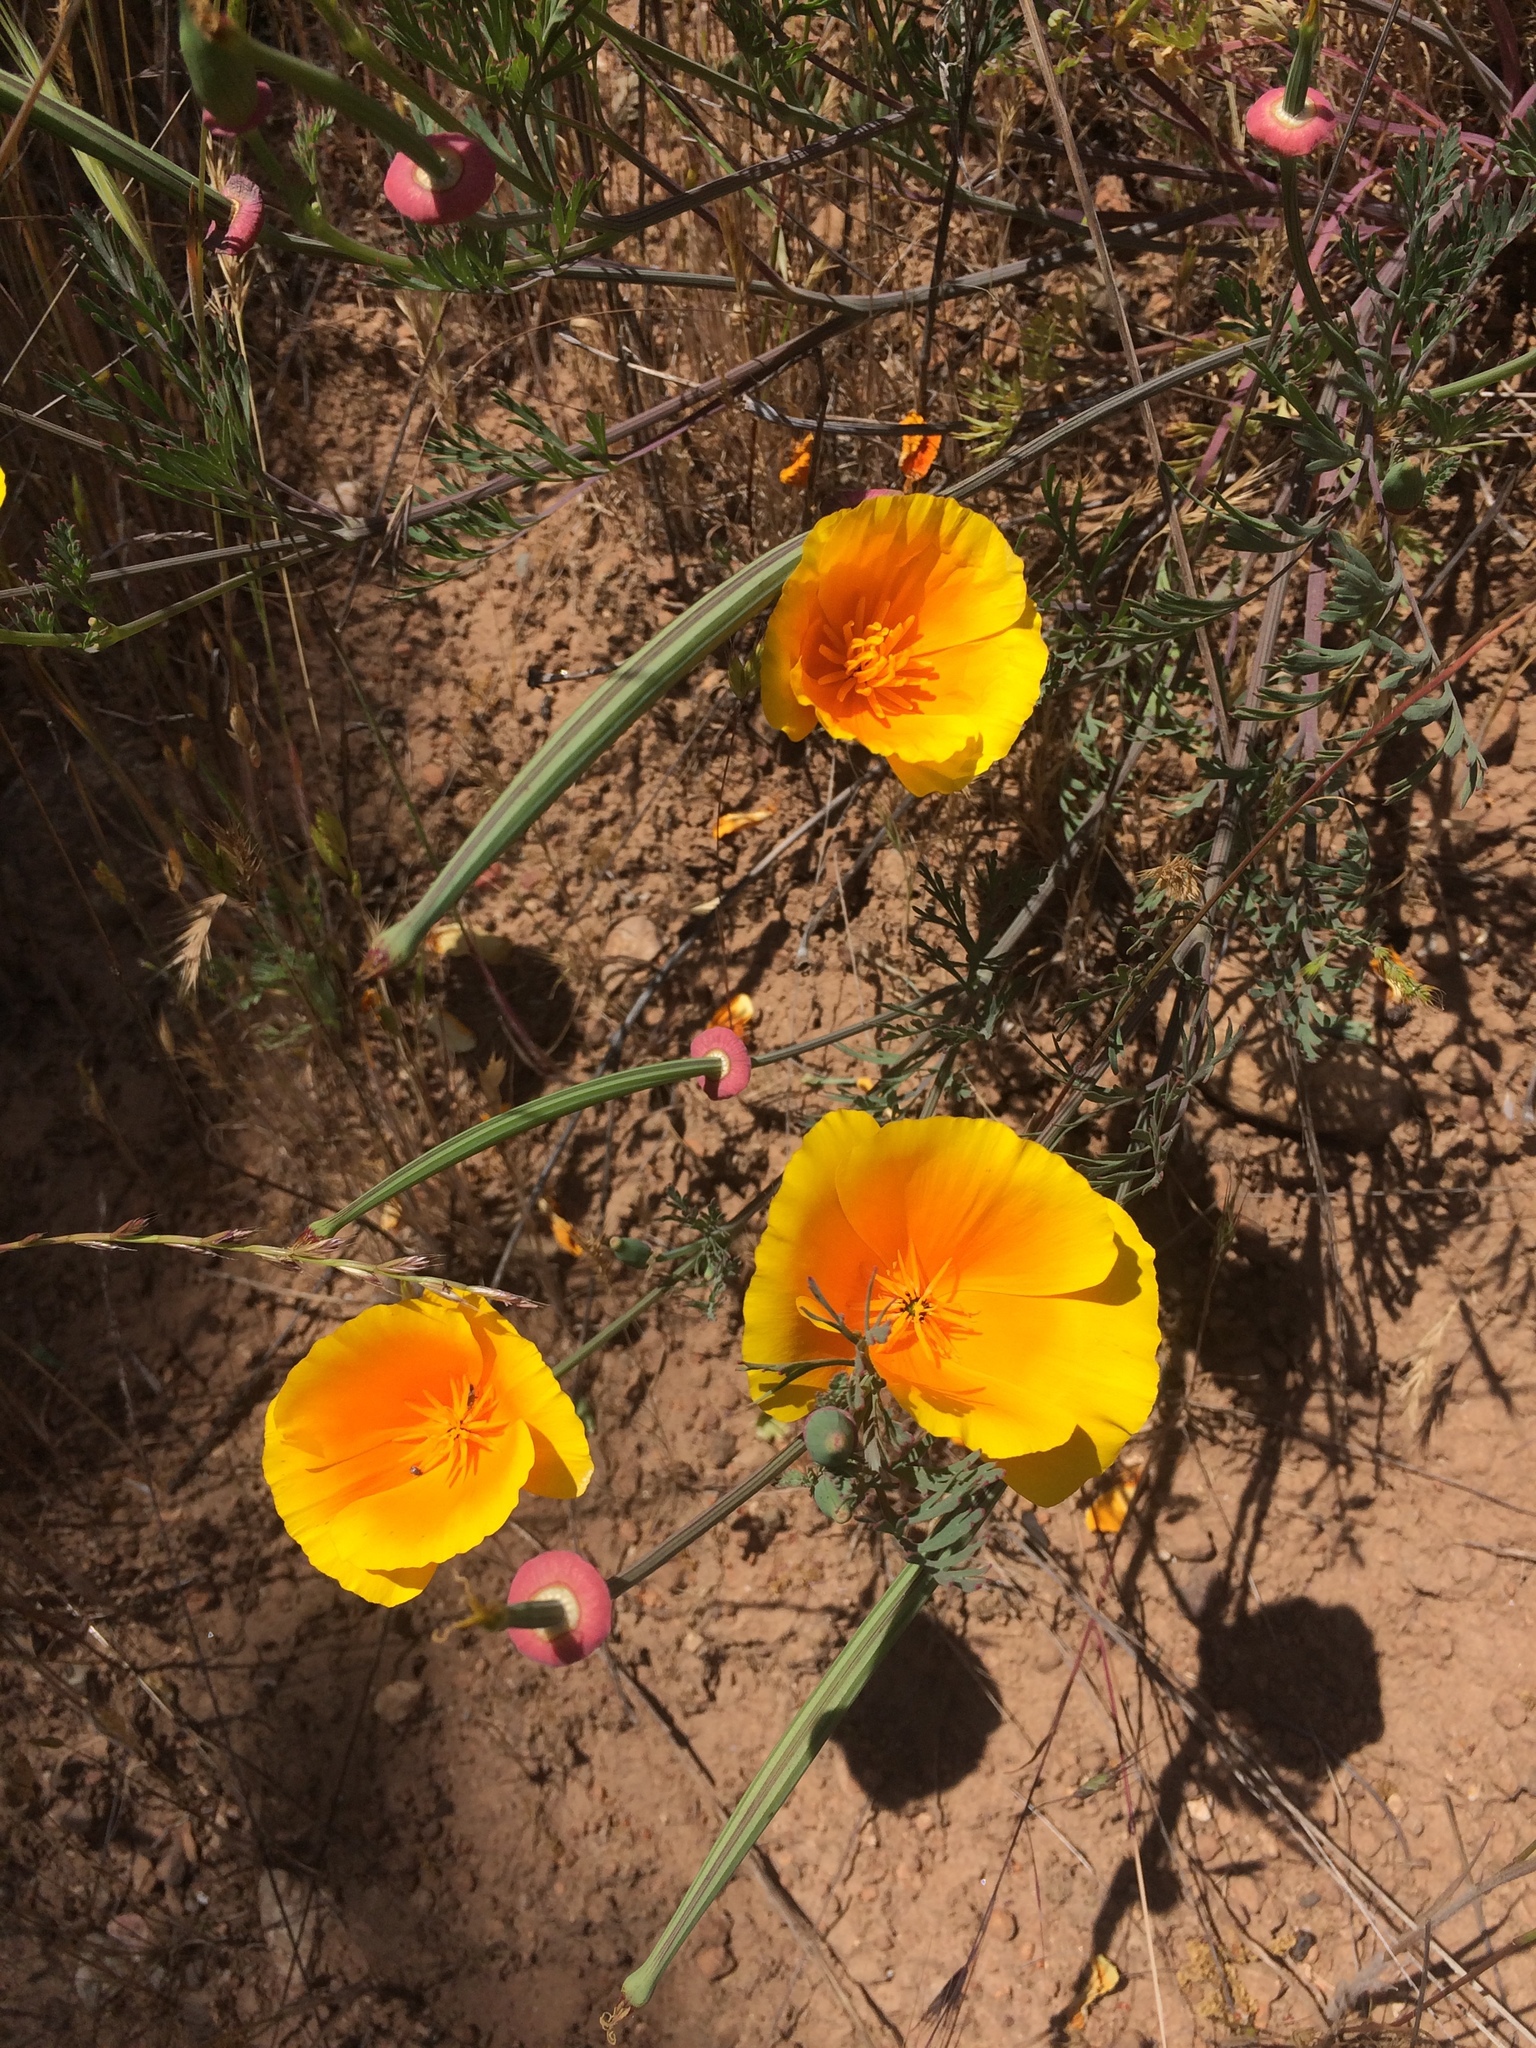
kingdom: Plantae
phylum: Tracheophyta
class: Magnoliopsida
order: Ranunculales
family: Papaveraceae
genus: Eschscholzia
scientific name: Eschscholzia californica
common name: California poppy
